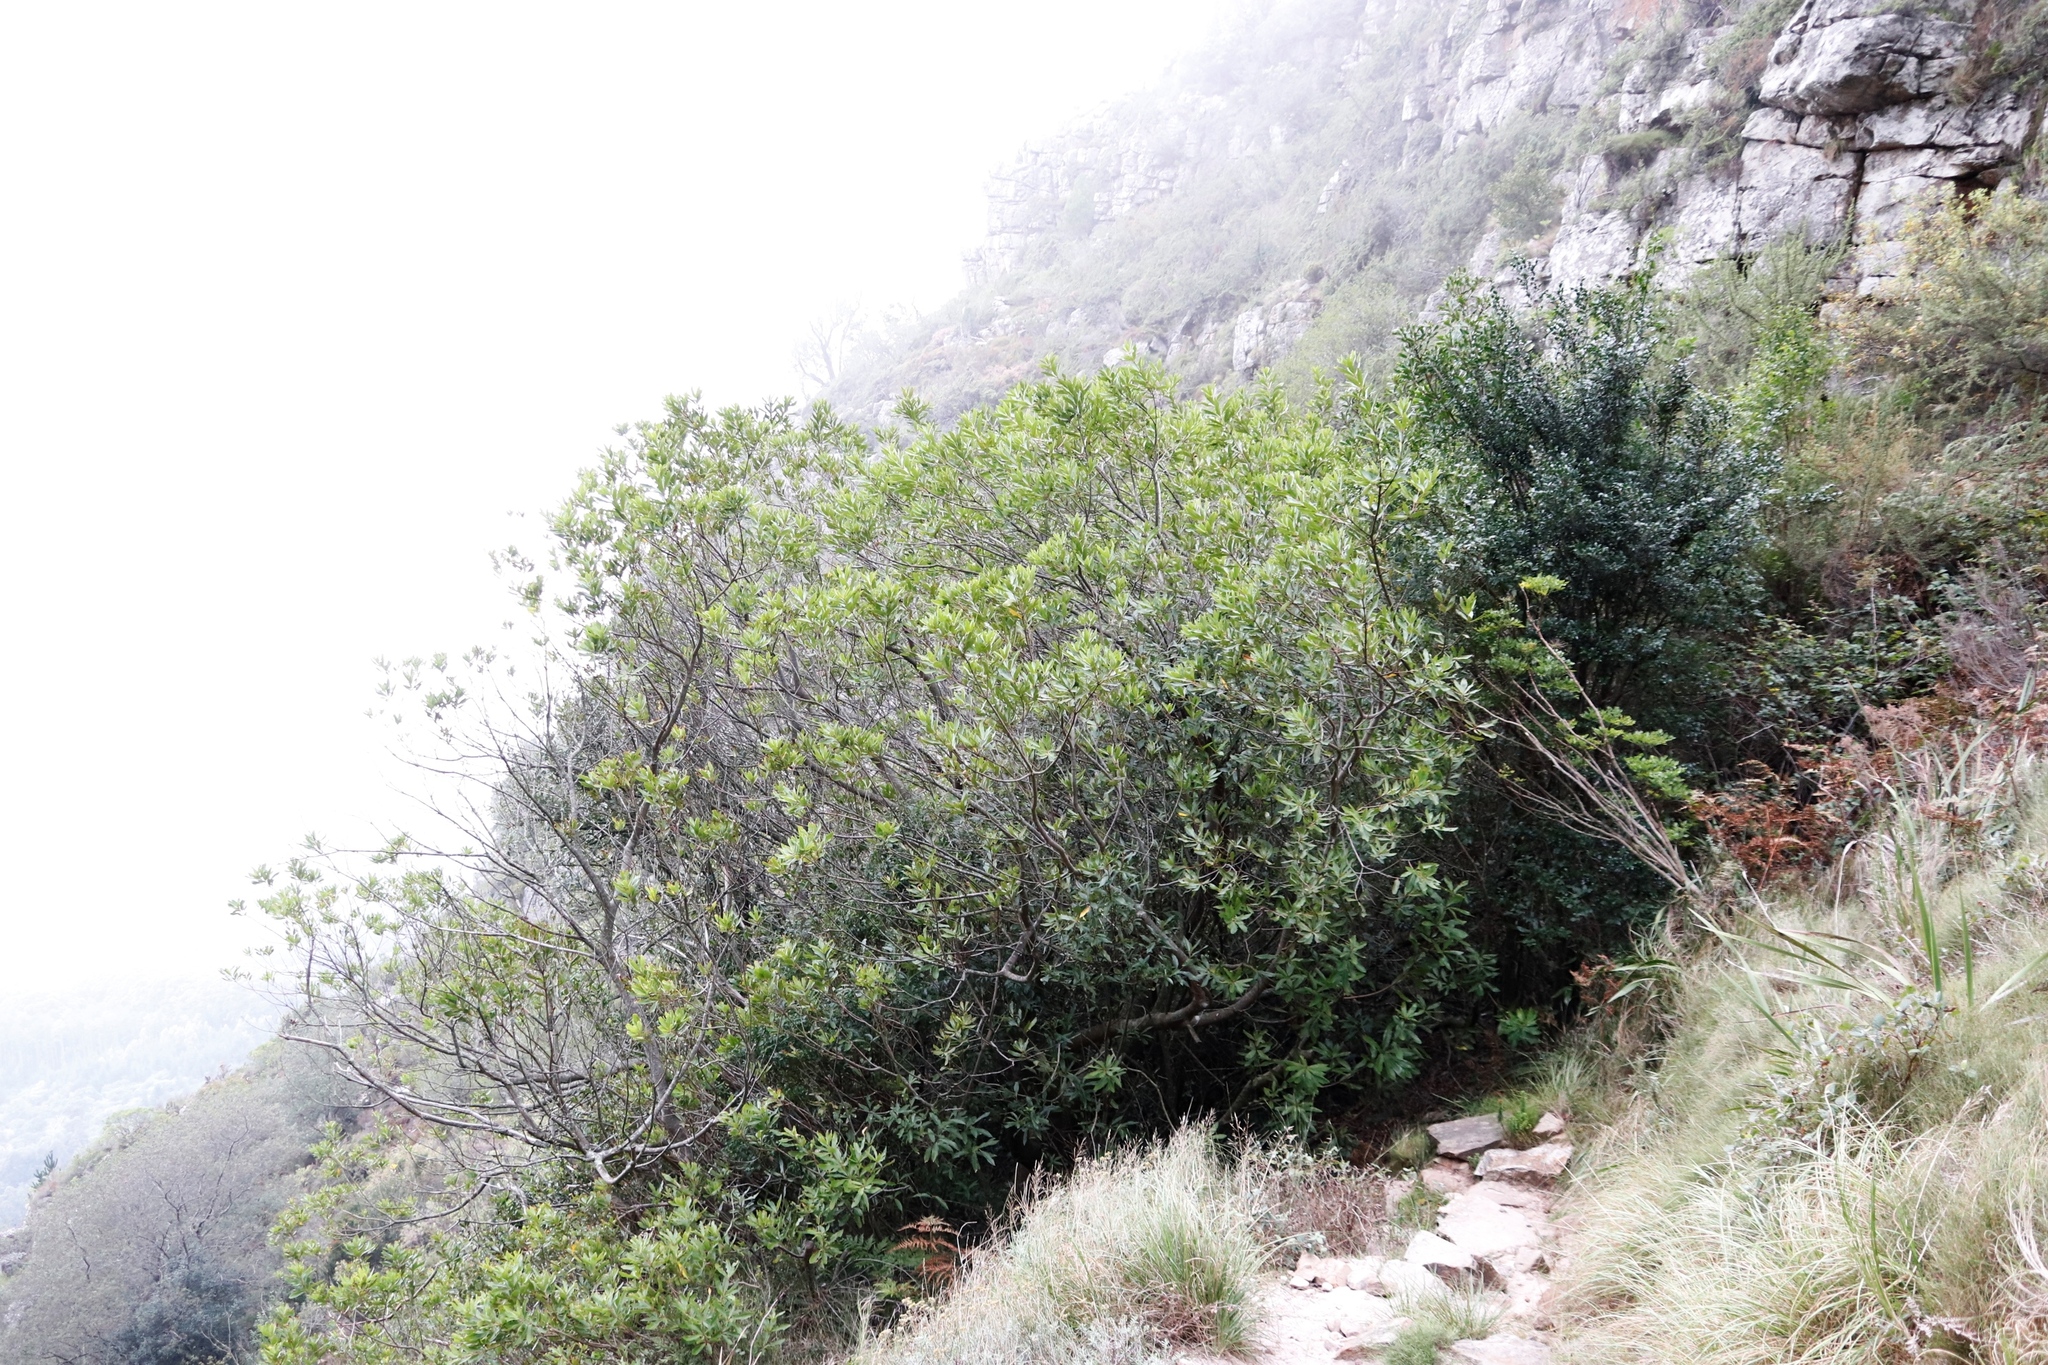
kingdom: Plantae
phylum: Tracheophyta
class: Magnoliopsida
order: Proteales
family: Proteaceae
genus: Brabejum
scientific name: Brabejum stellatifolium
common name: Wild almond
